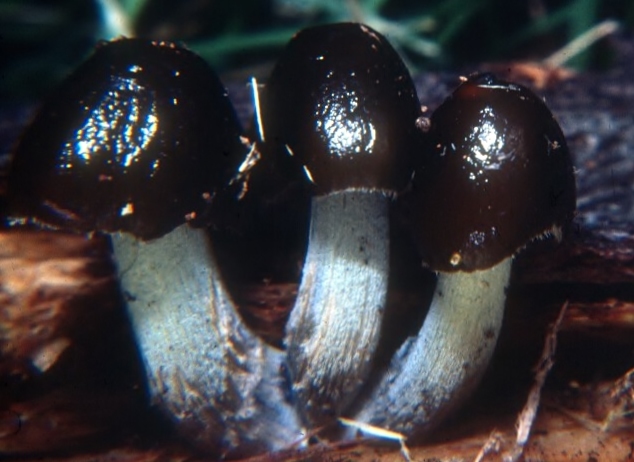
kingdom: Fungi
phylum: Basidiomycota
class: Agaricomycetes
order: Agaricales
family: Bolbitiaceae
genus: Bolbitius
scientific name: Bolbitius callistus
